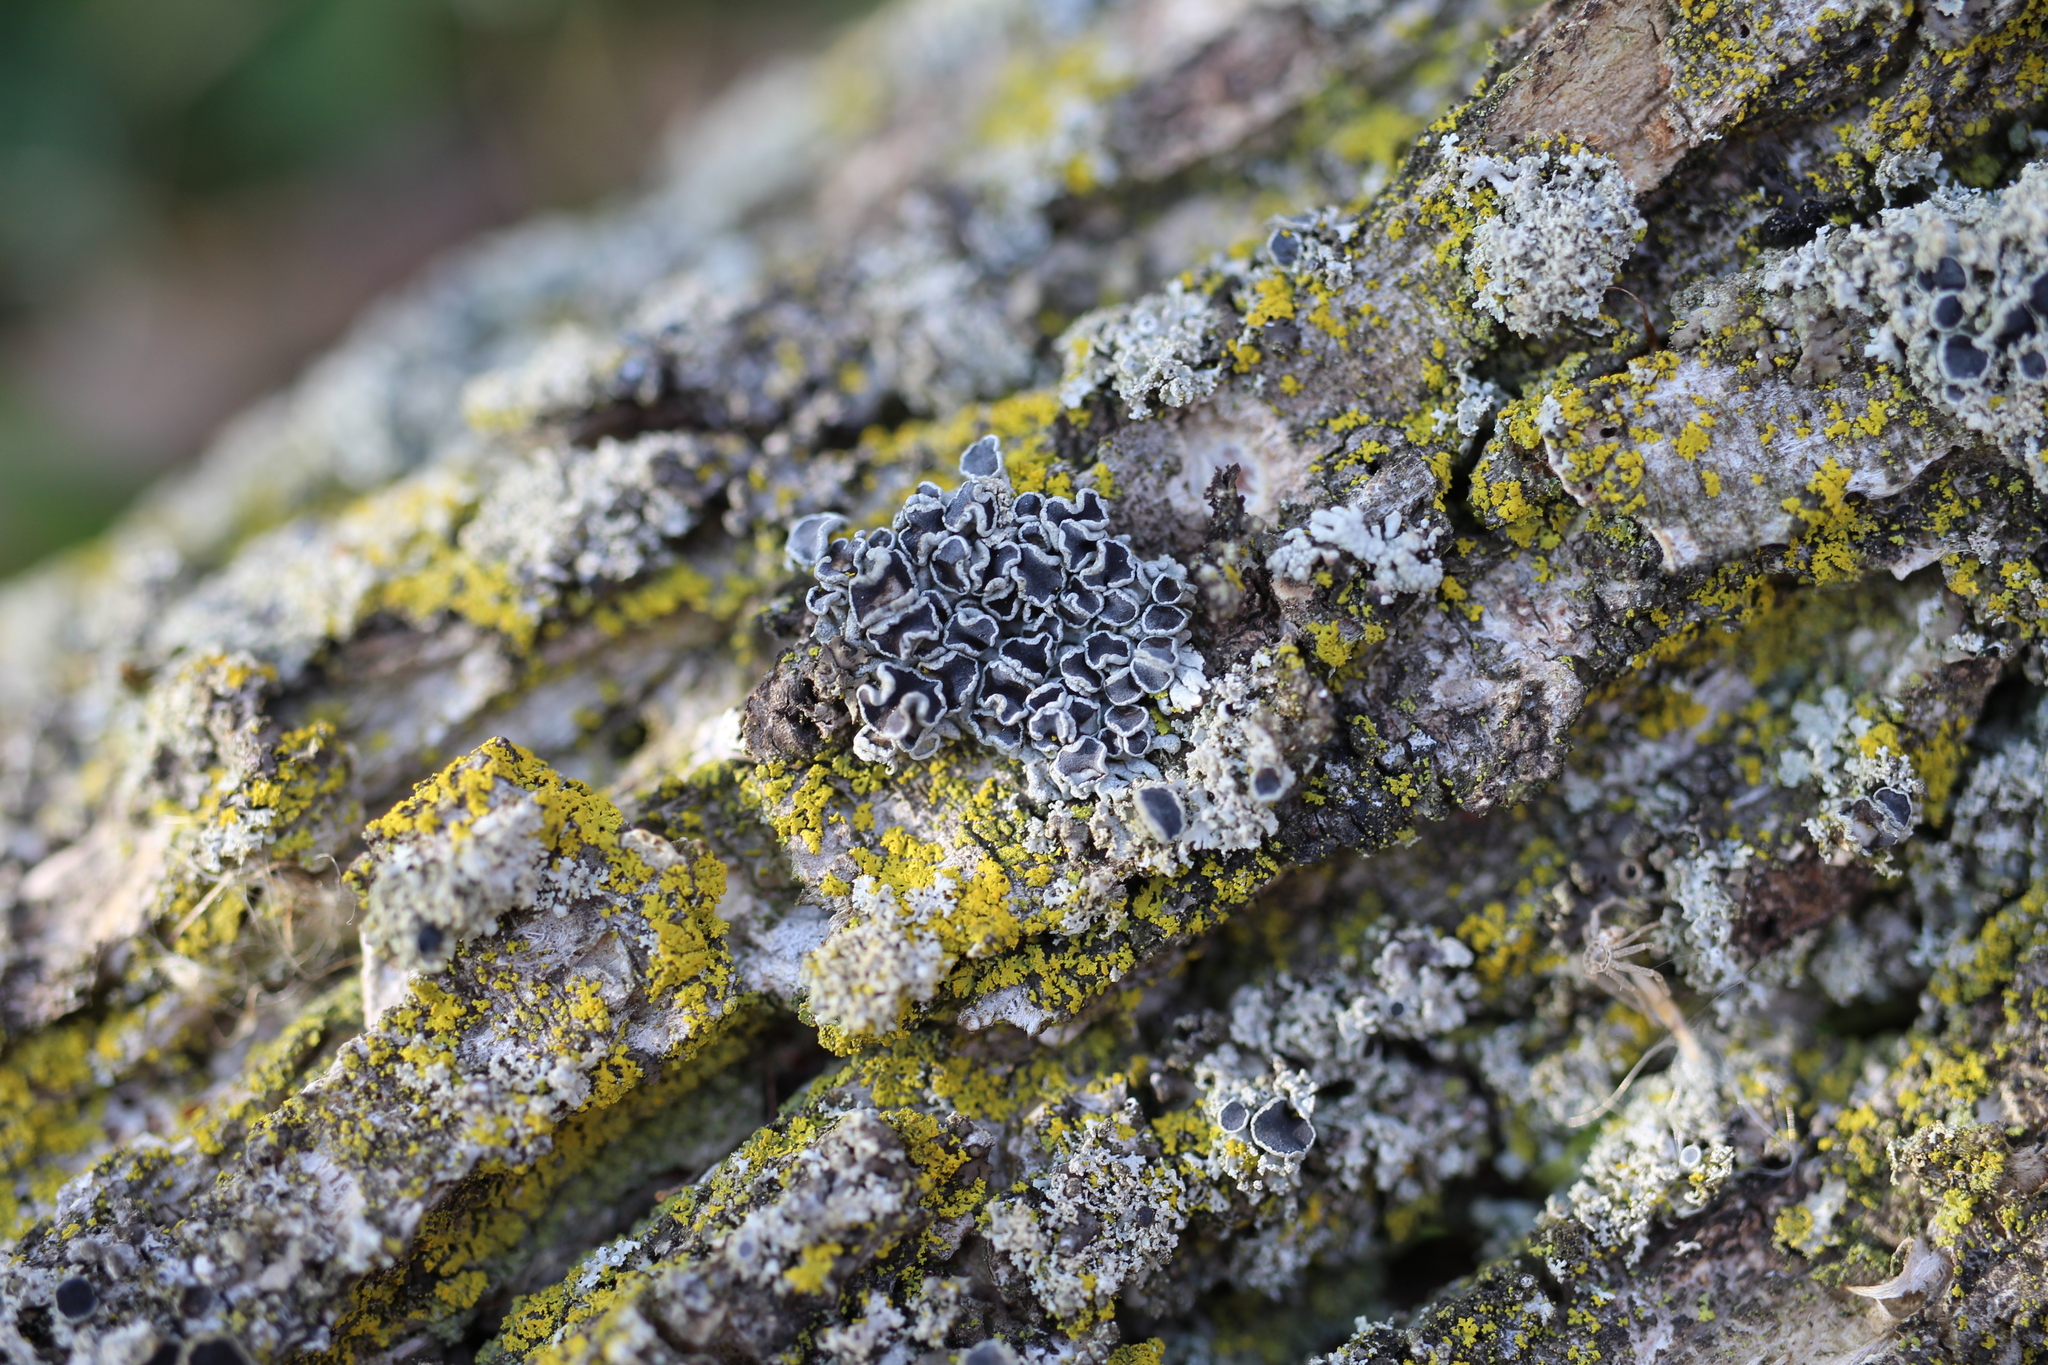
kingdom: Fungi
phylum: Ascomycota
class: Lecanoromycetes
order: Caliciales
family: Physciaceae
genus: Physcia
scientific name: Physcia stellaris
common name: Star rosette lichen
